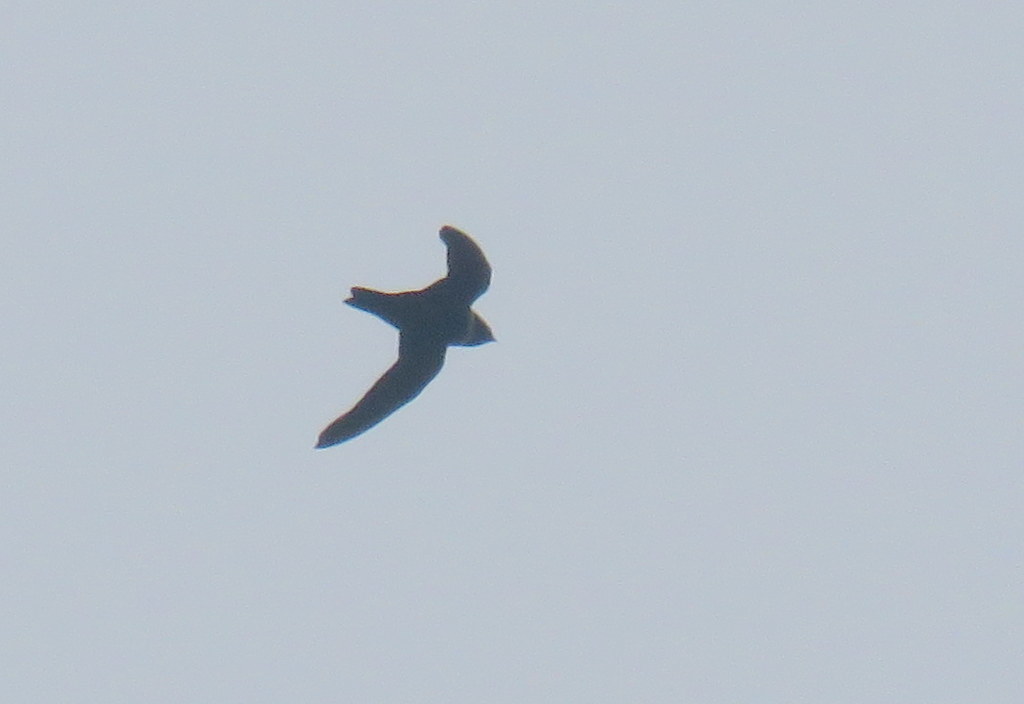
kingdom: Animalia
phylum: Chordata
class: Aves
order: Apodiformes
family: Apodidae
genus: Streptoprocne
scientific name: Streptoprocne zonaris
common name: White-collared swift
